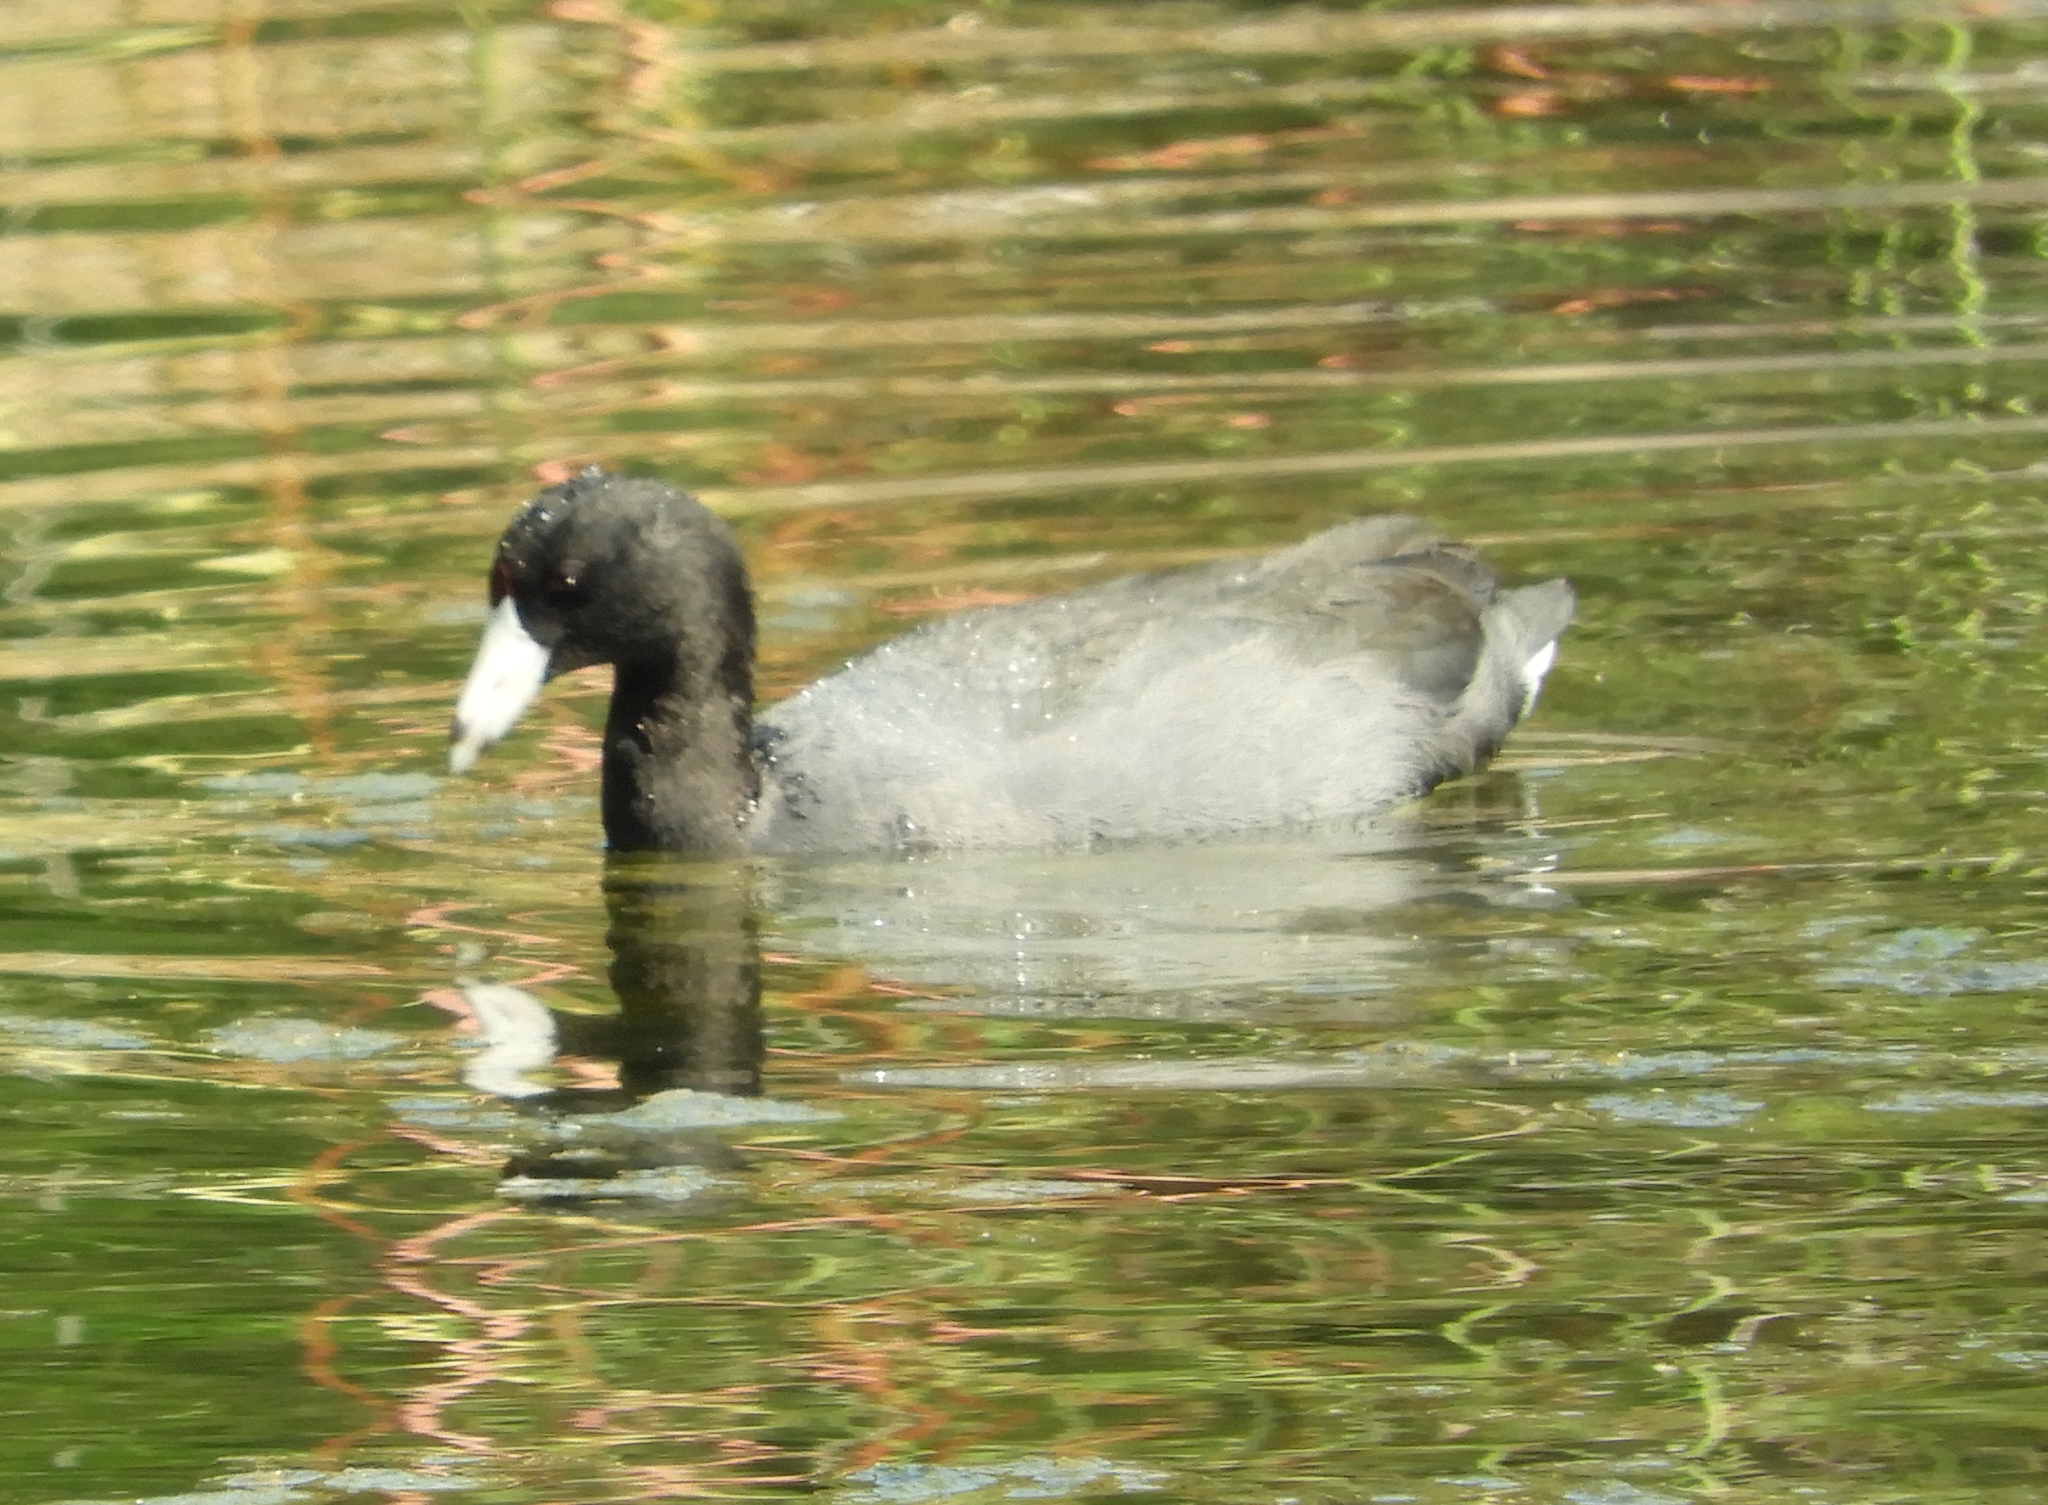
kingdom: Animalia
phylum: Chordata
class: Aves
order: Gruiformes
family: Rallidae
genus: Fulica
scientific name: Fulica americana
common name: American coot
